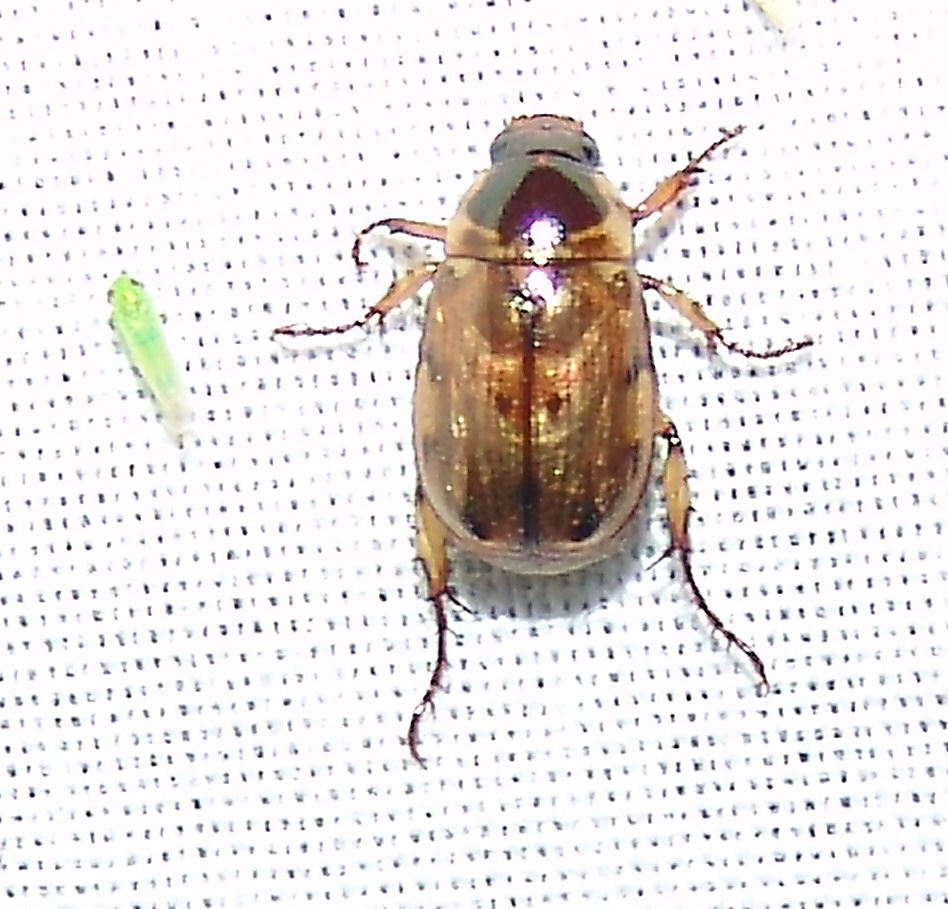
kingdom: Animalia
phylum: Arthropoda
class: Insecta
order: Coleoptera
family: Scarabaeidae
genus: Anomala
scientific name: Anomala innuba
